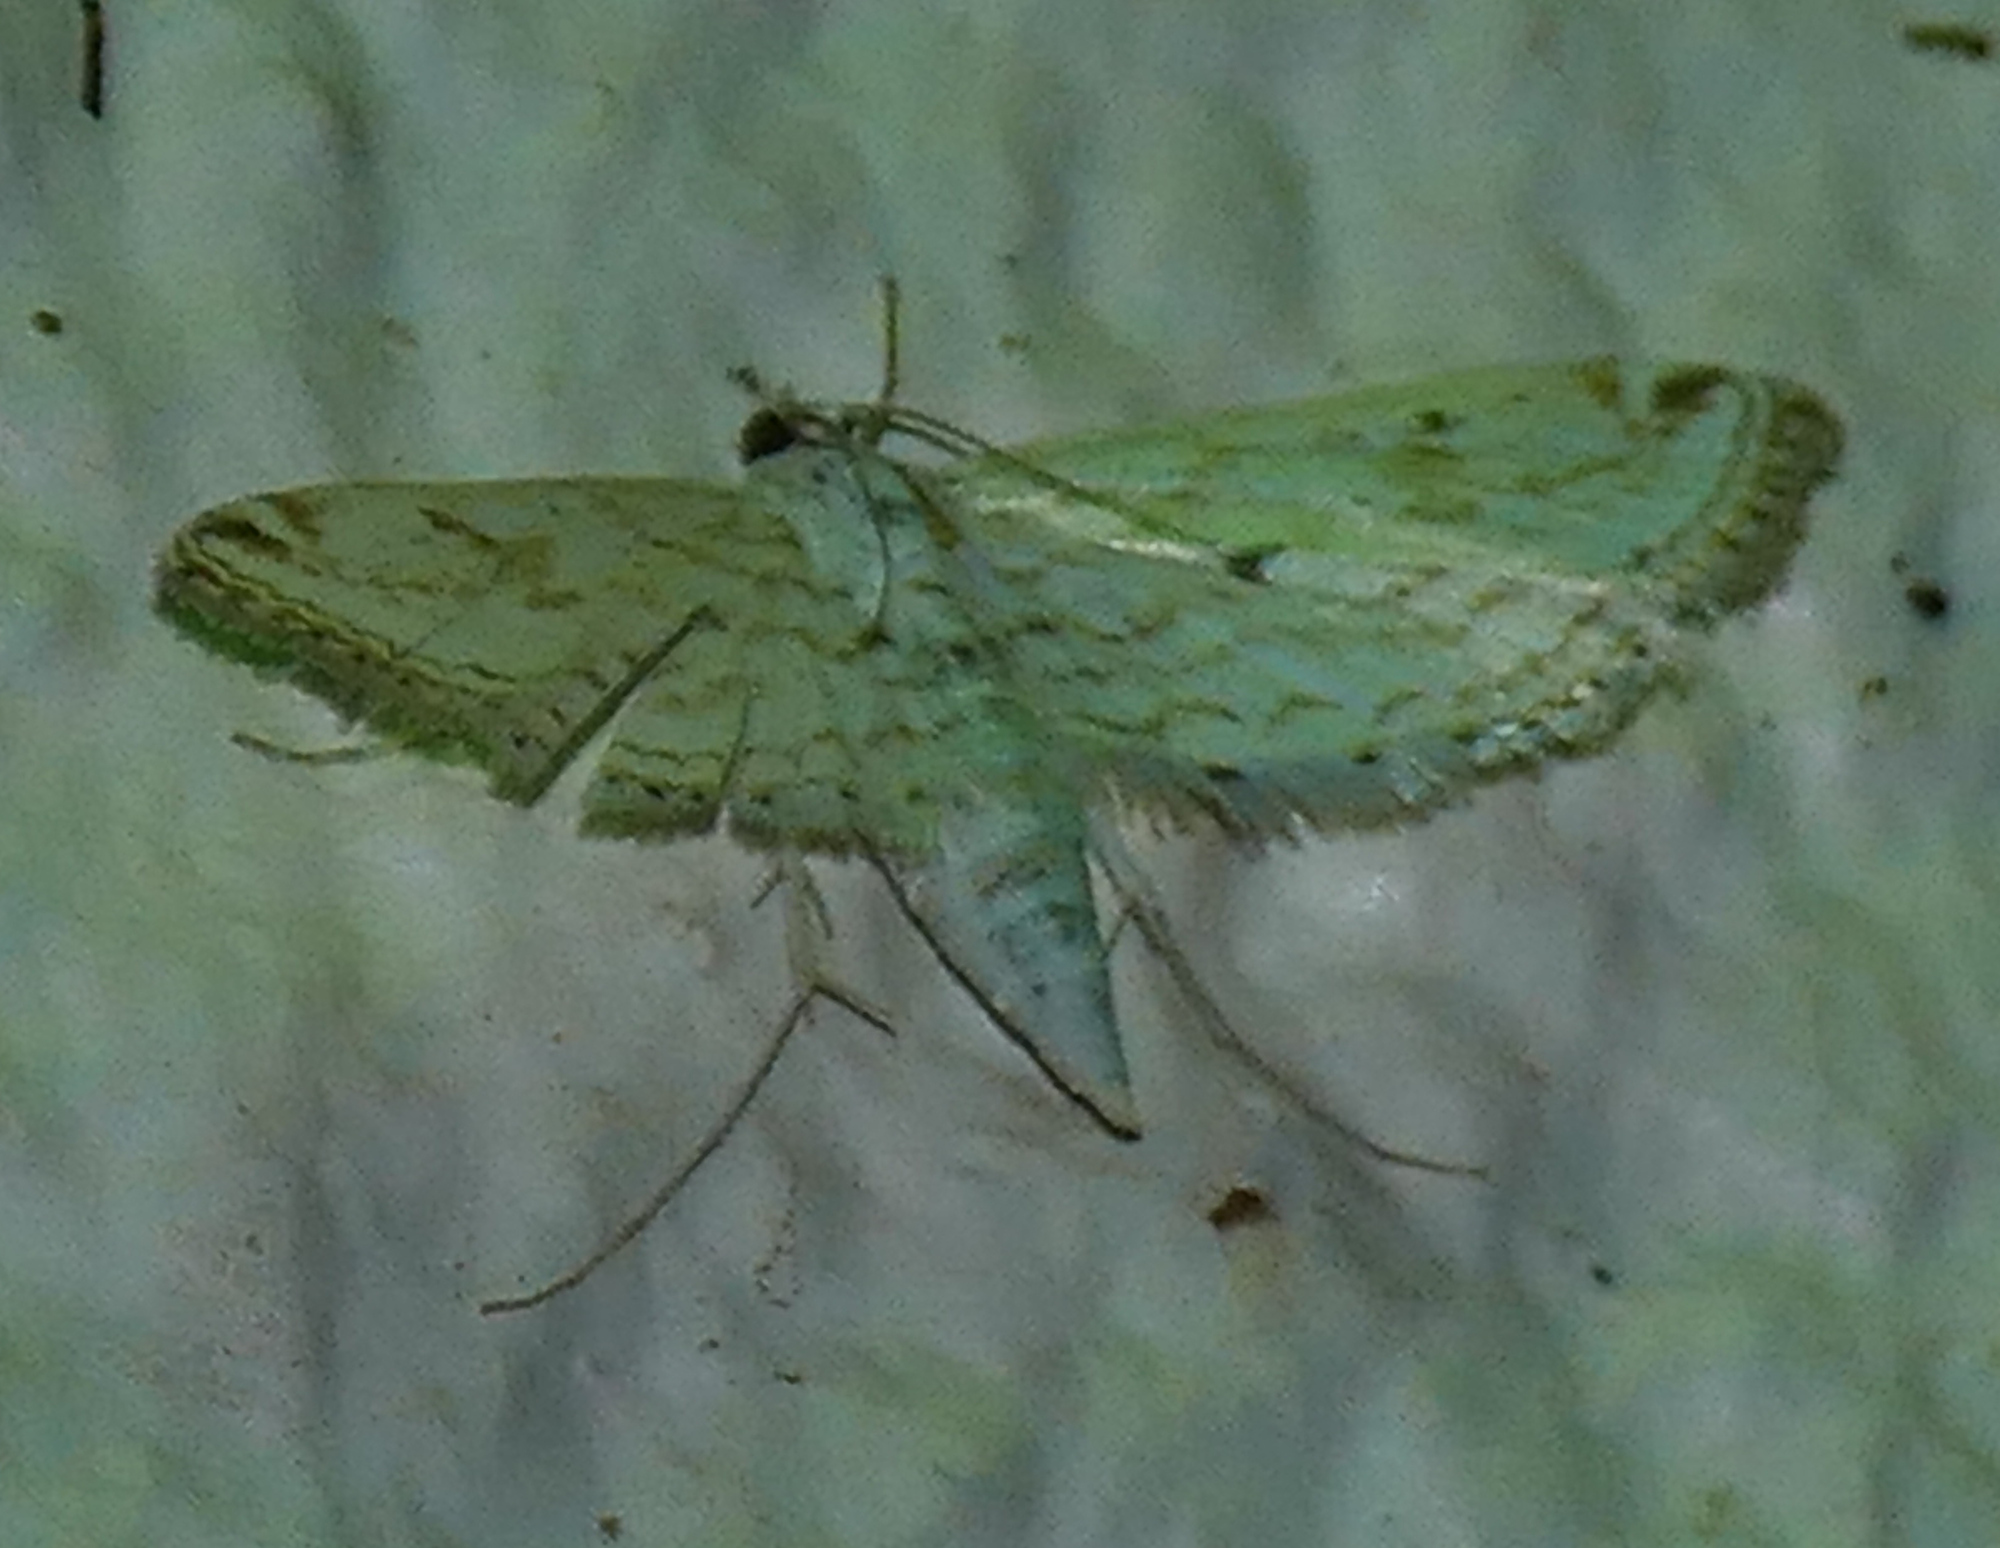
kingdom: Animalia
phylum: Arthropoda
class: Insecta
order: Lepidoptera
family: Crambidae
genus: Parapoynx
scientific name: Parapoynx allionealis
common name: Bladderwort casemaker
